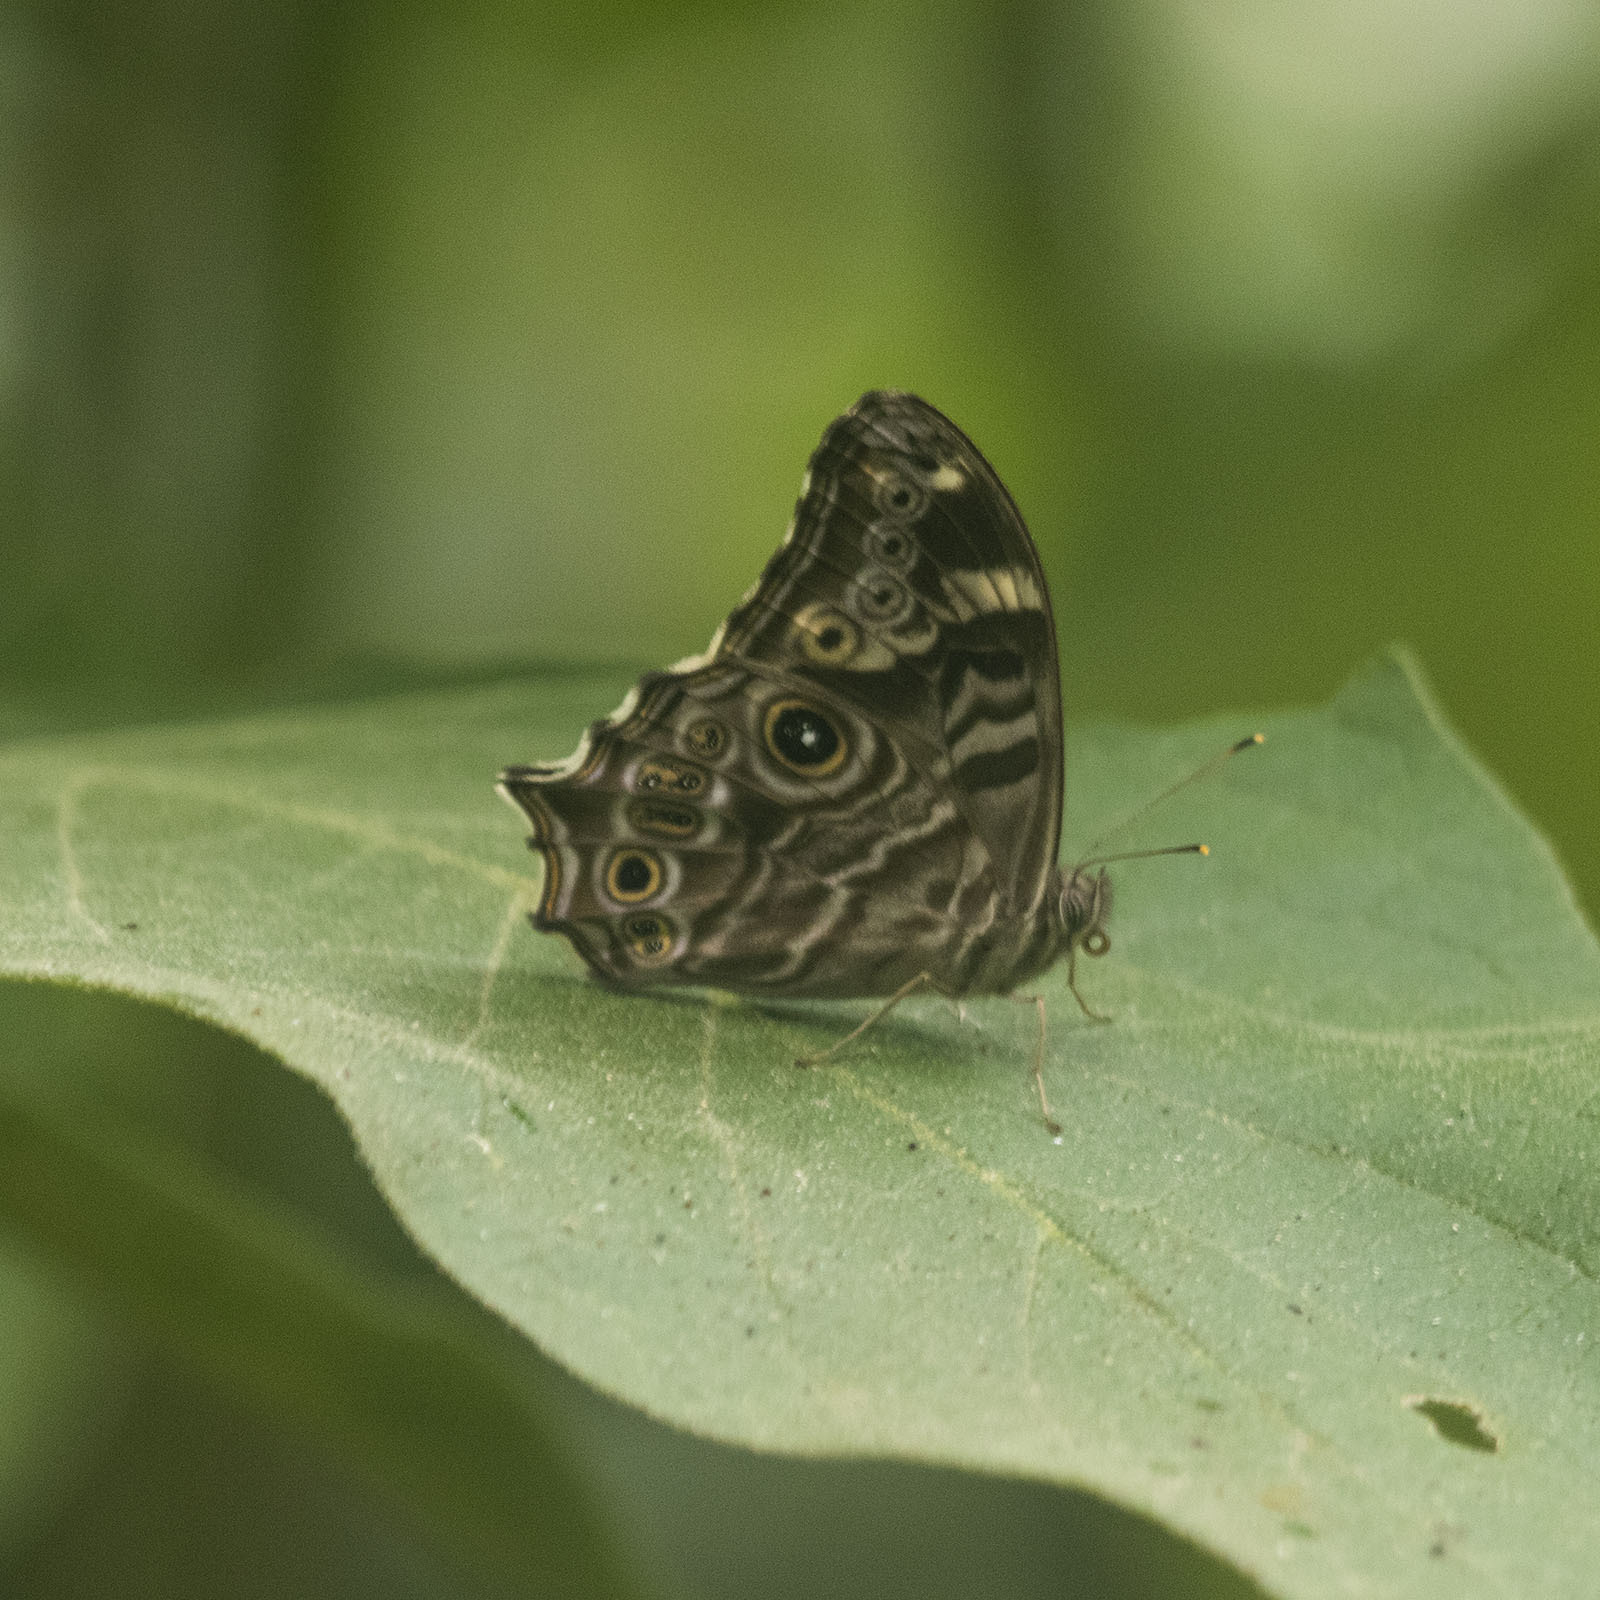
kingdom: Animalia
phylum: Arthropoda
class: Insecta
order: Lepidoptera
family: Nymphalidae
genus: Lethe
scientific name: Lethe rohria
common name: Common treebrown
